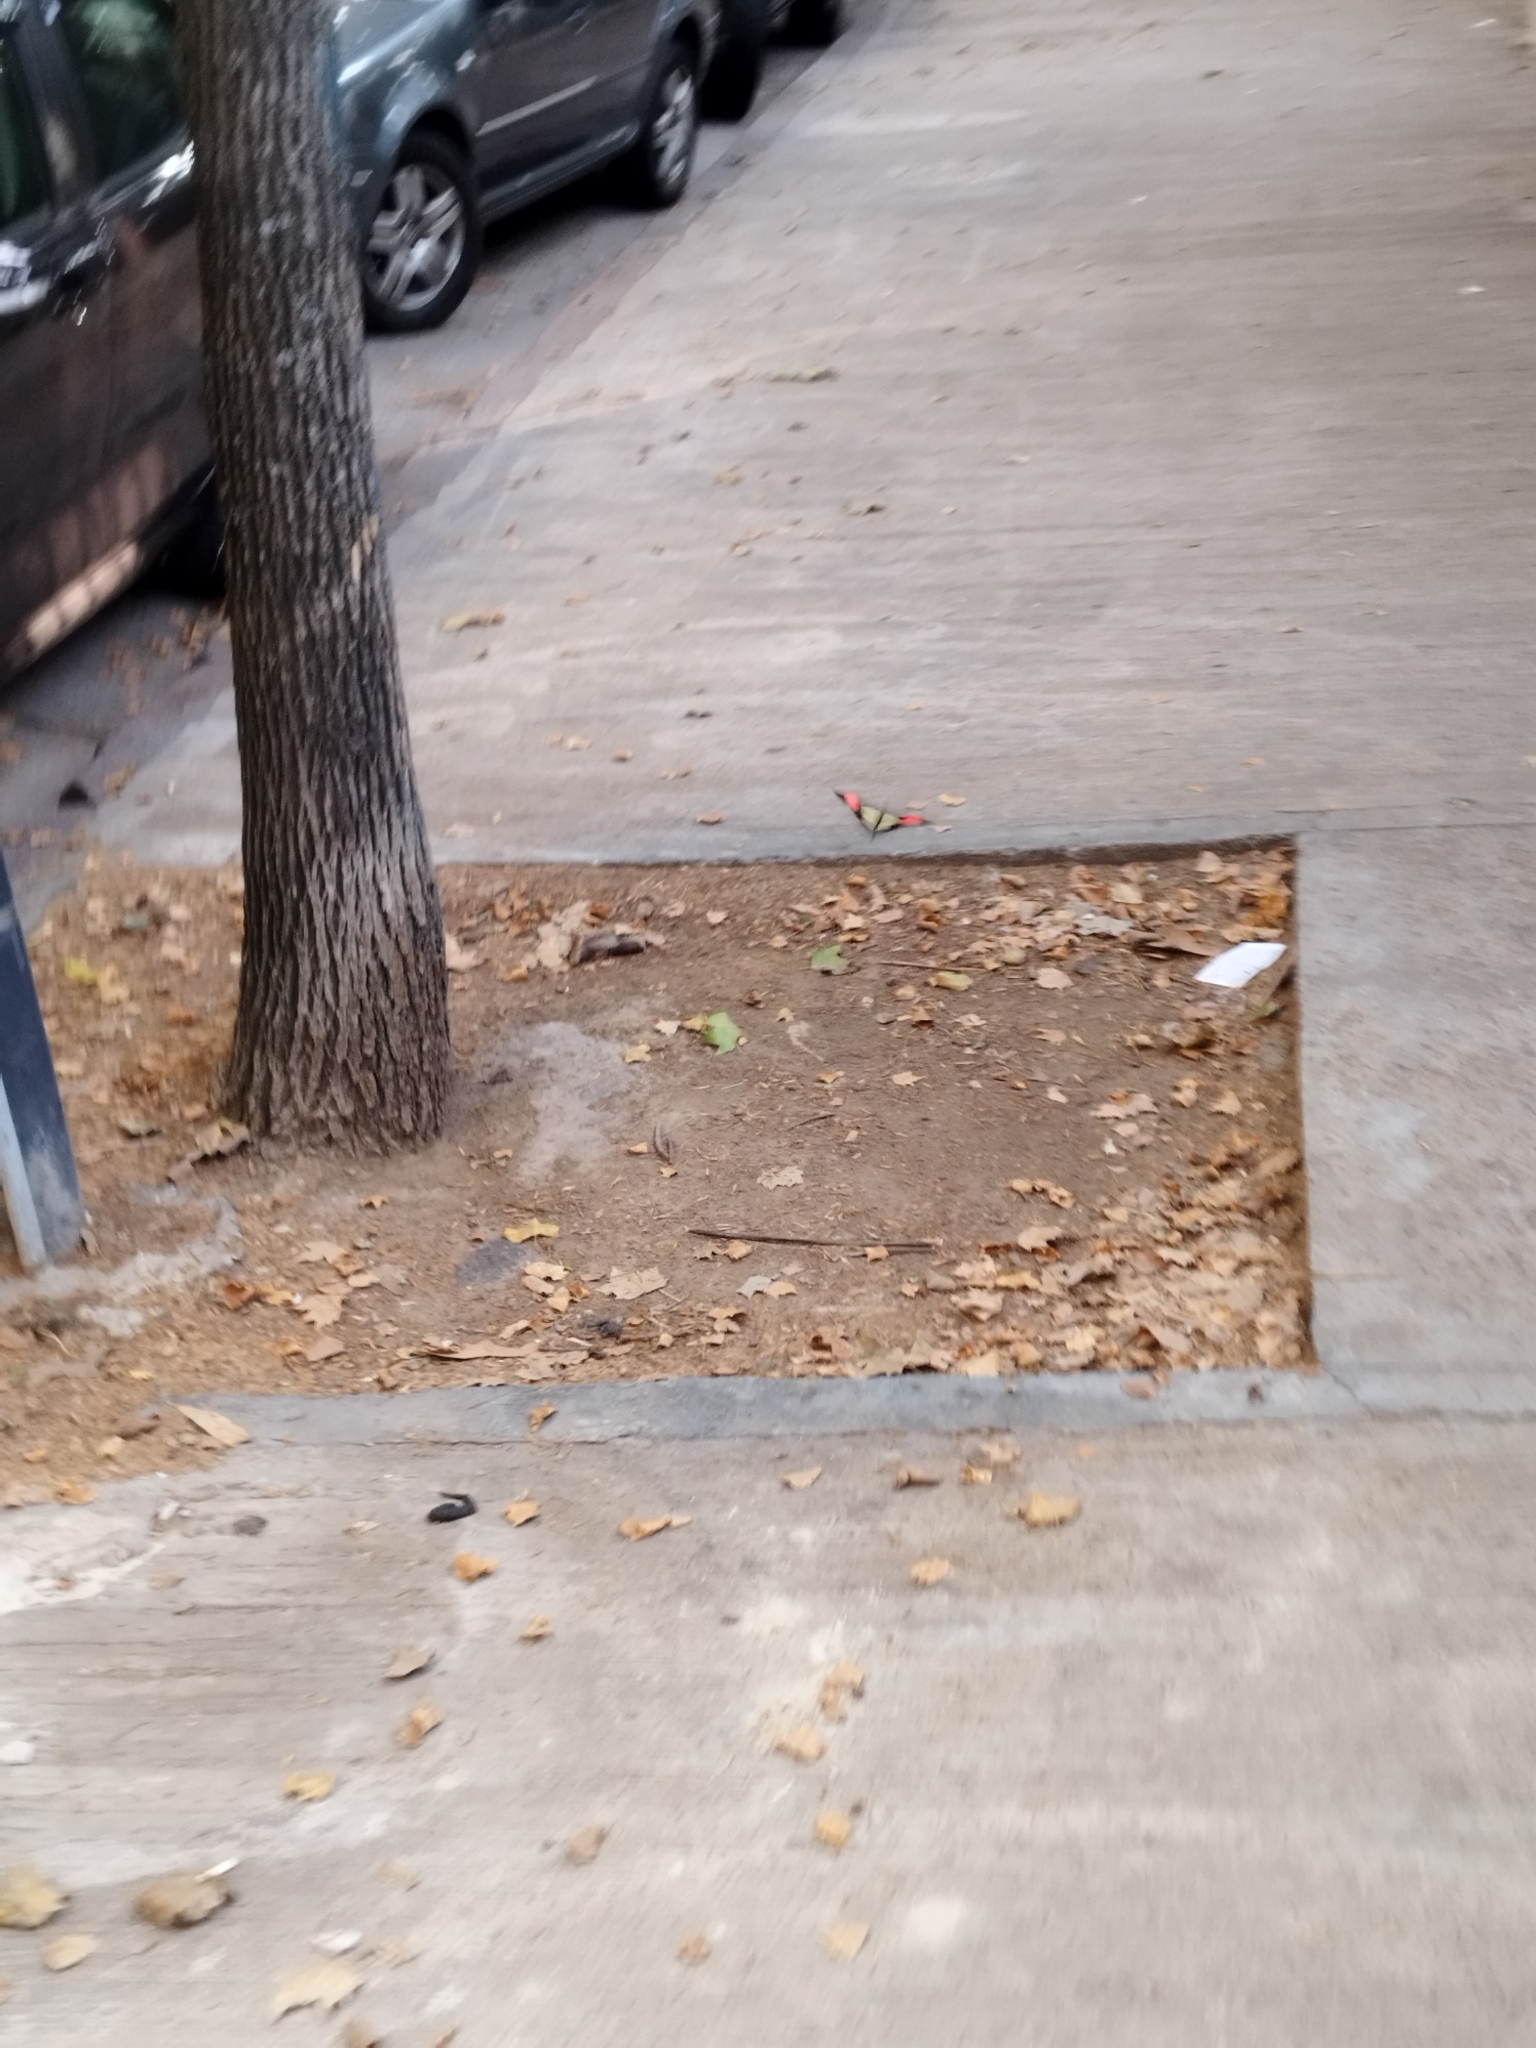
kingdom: Animalia
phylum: Arthropoda
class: Insecta
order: Lepidoptera
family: Nymphalidae
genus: Heliconius
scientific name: Heliconius erato
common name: Common patch longwing
